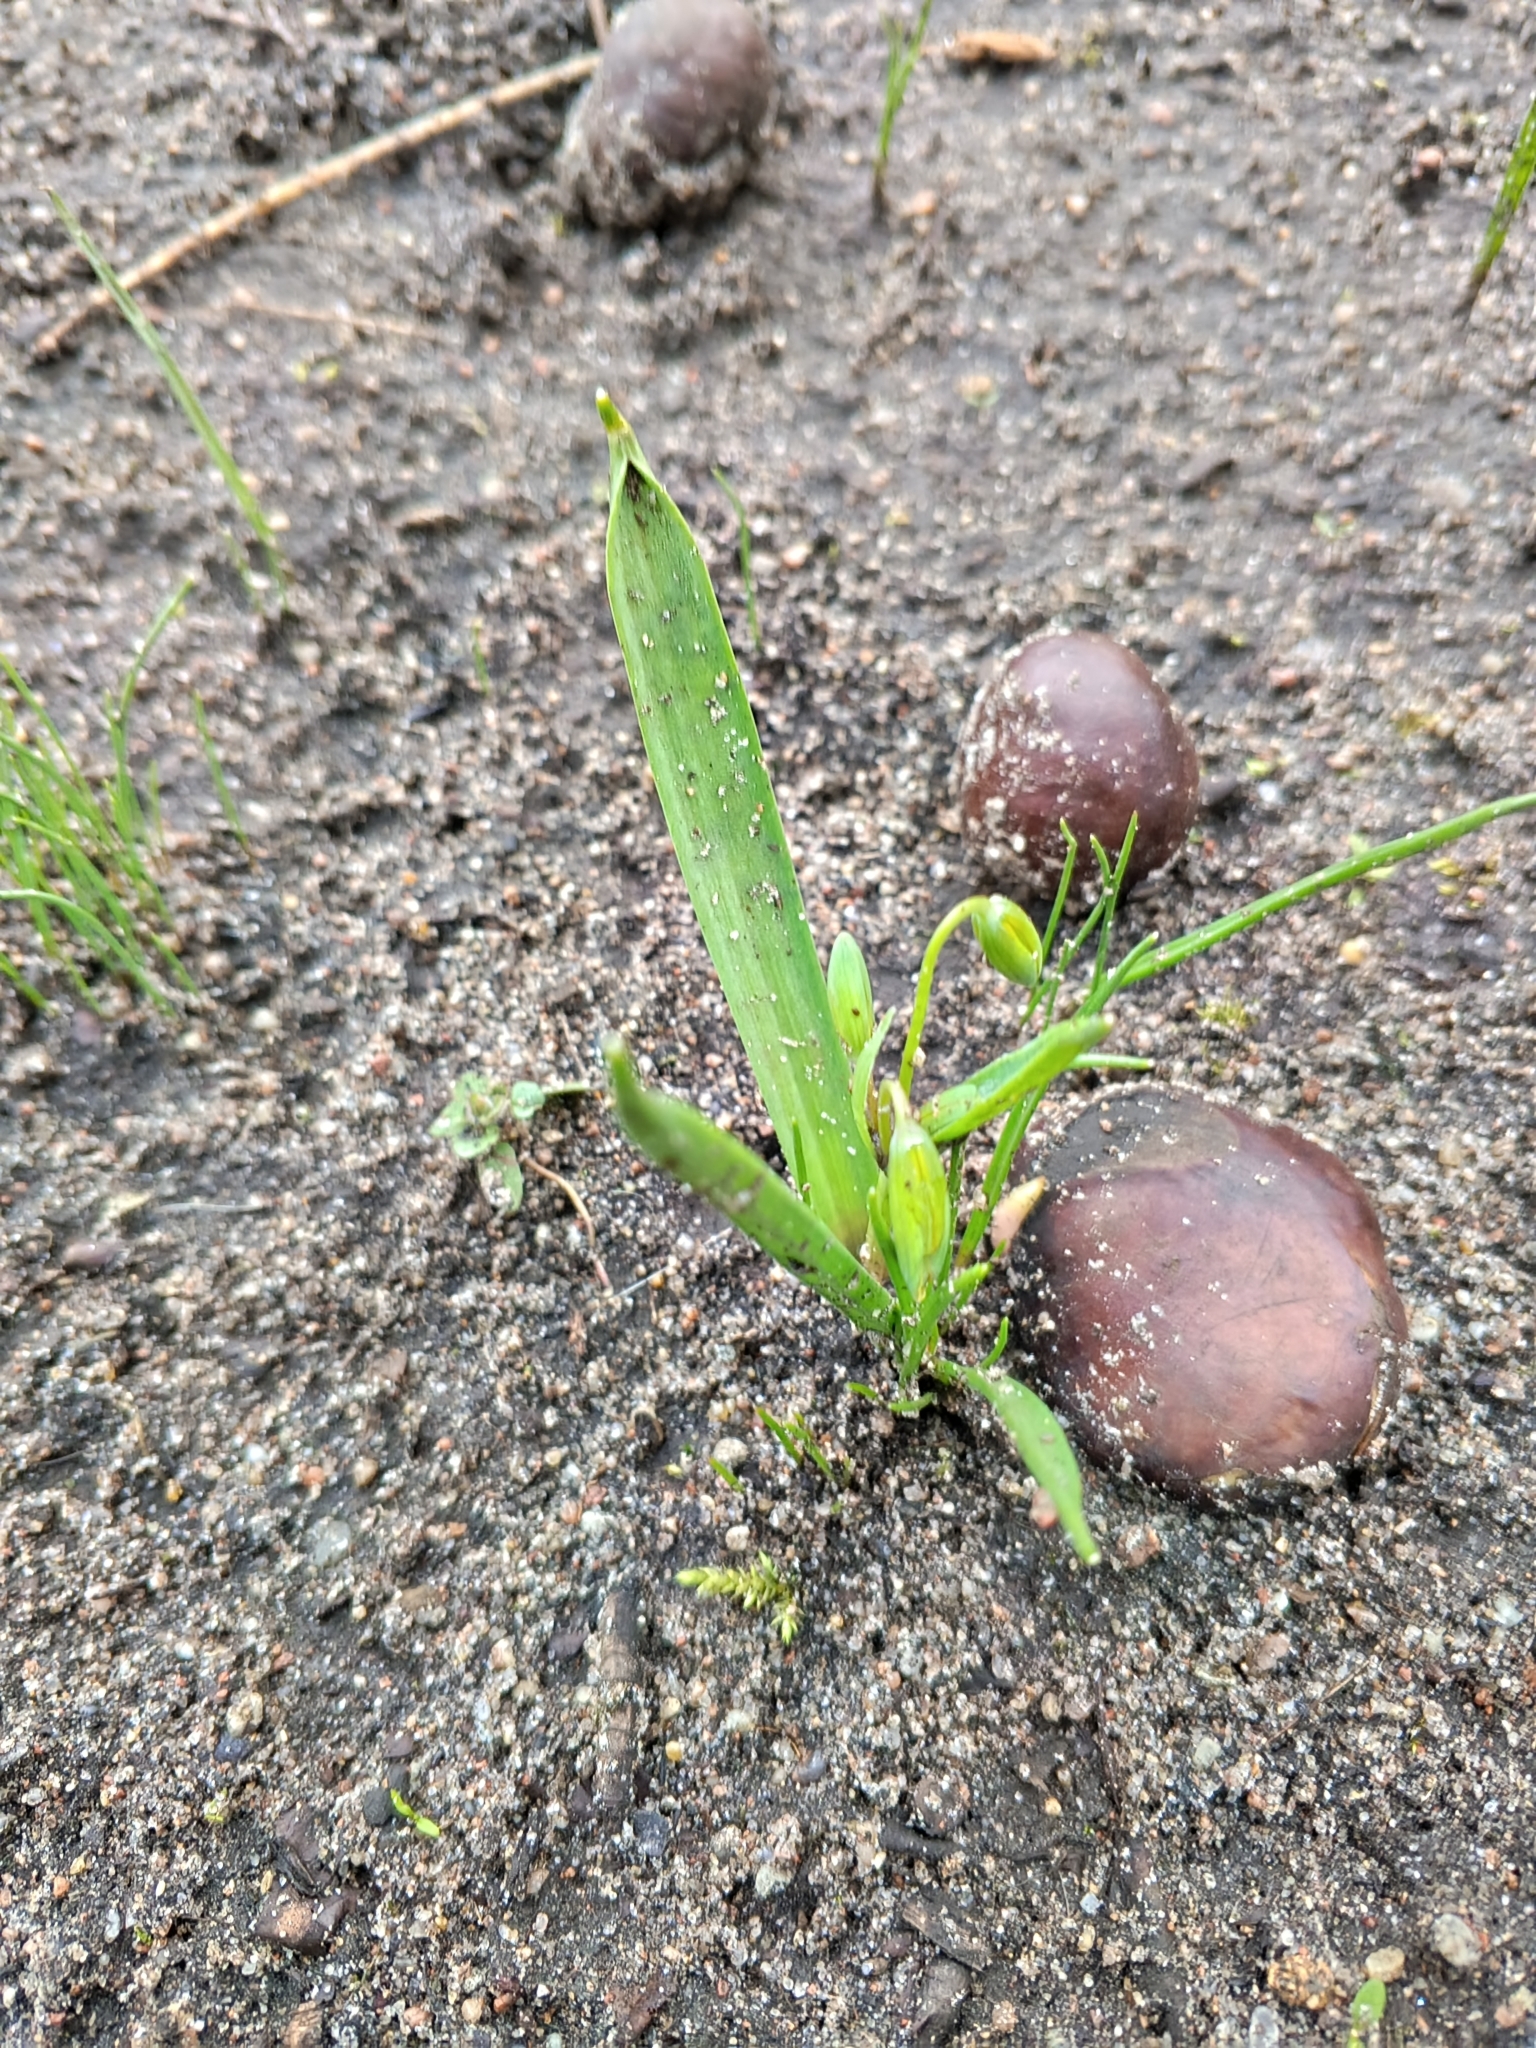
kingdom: Plantae
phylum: Tracheophyta
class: Liliopsida
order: Liliales
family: Liliaceae
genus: Gagea
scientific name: Gagea lutea
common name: Yellow star-of-bethlehem
